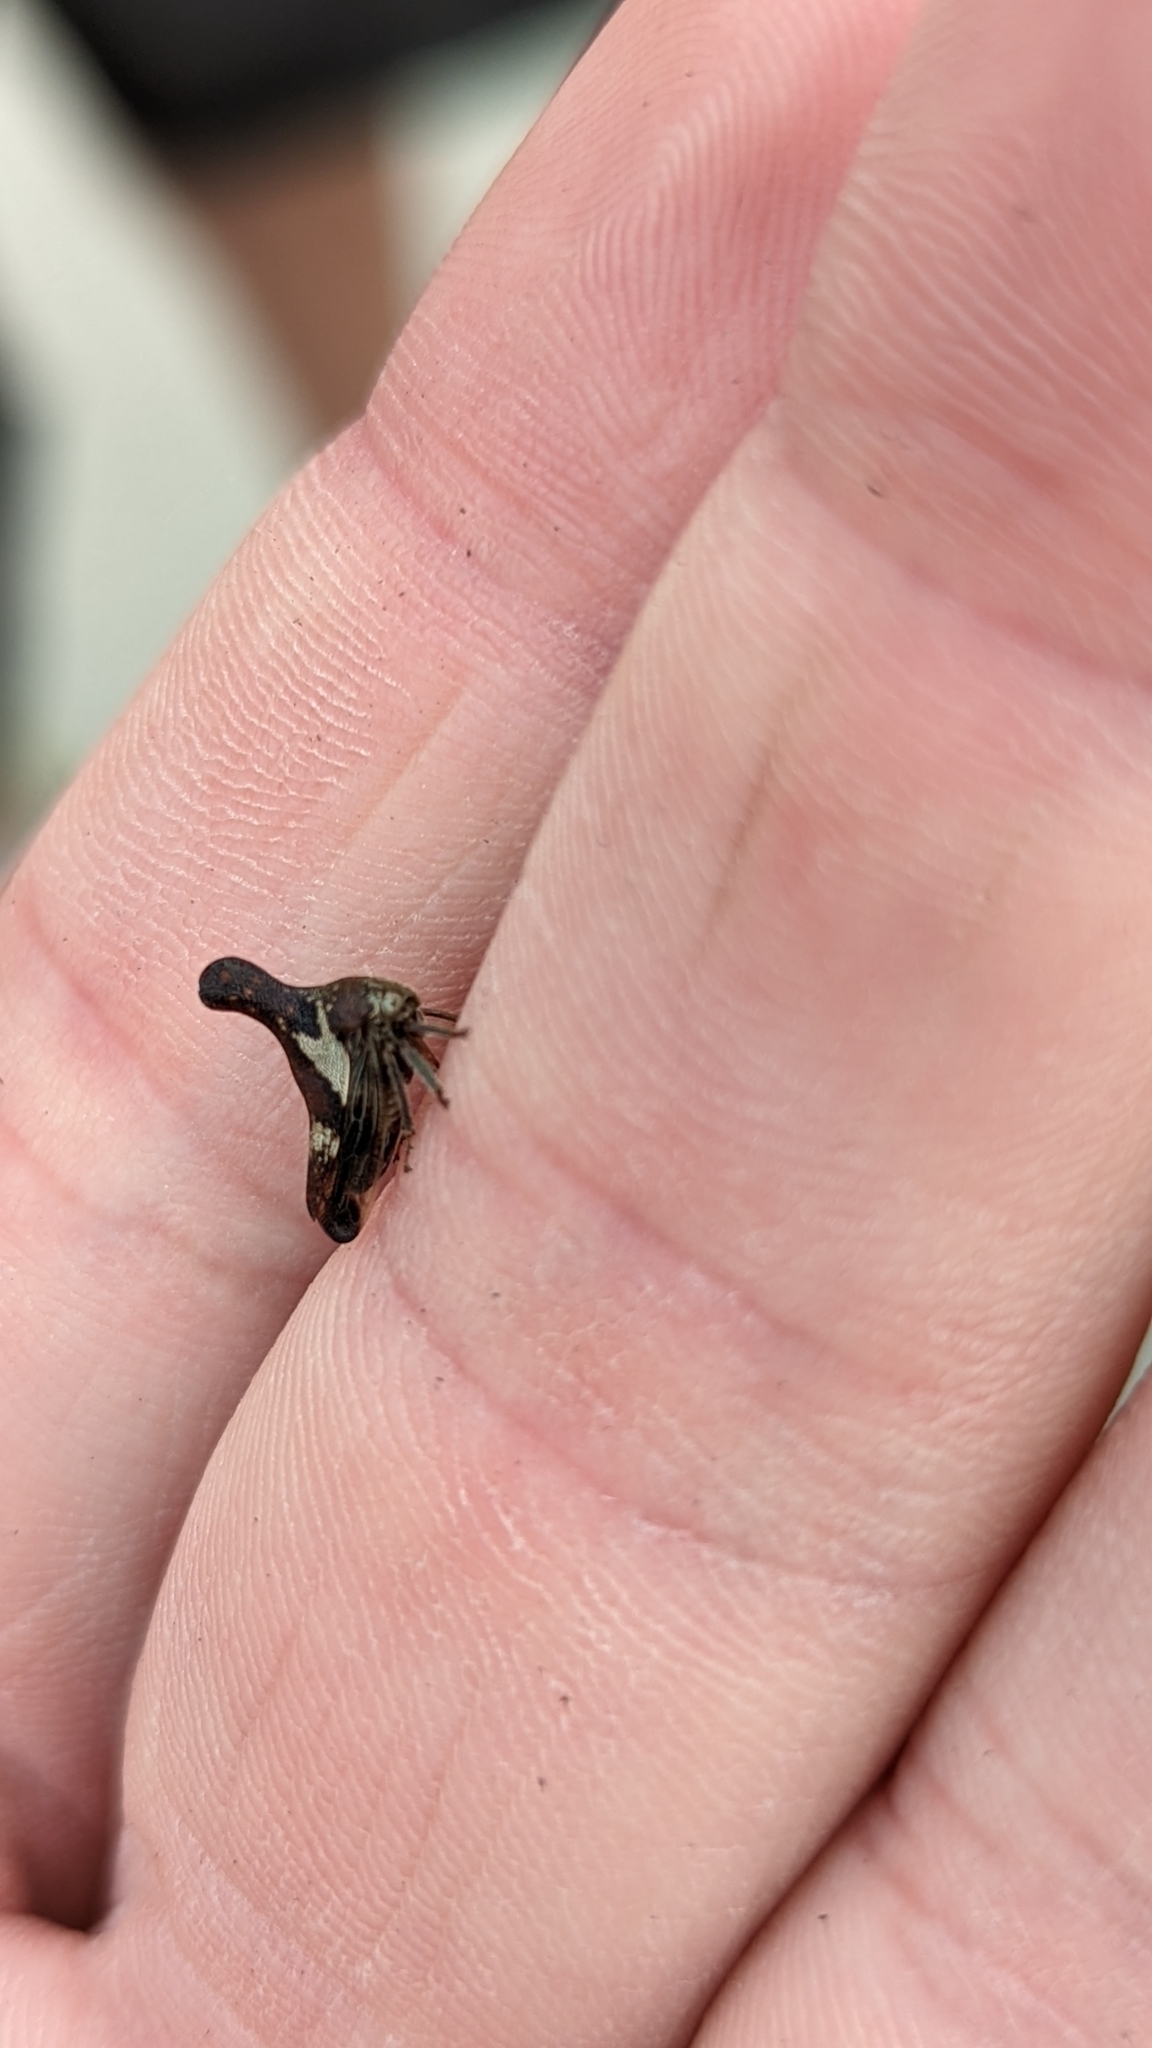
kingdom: Animalia
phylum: Arthropoda
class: Insecta
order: Hemiptera
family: Membracidae
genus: Glossonotus
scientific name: Glossonotus crataegi
